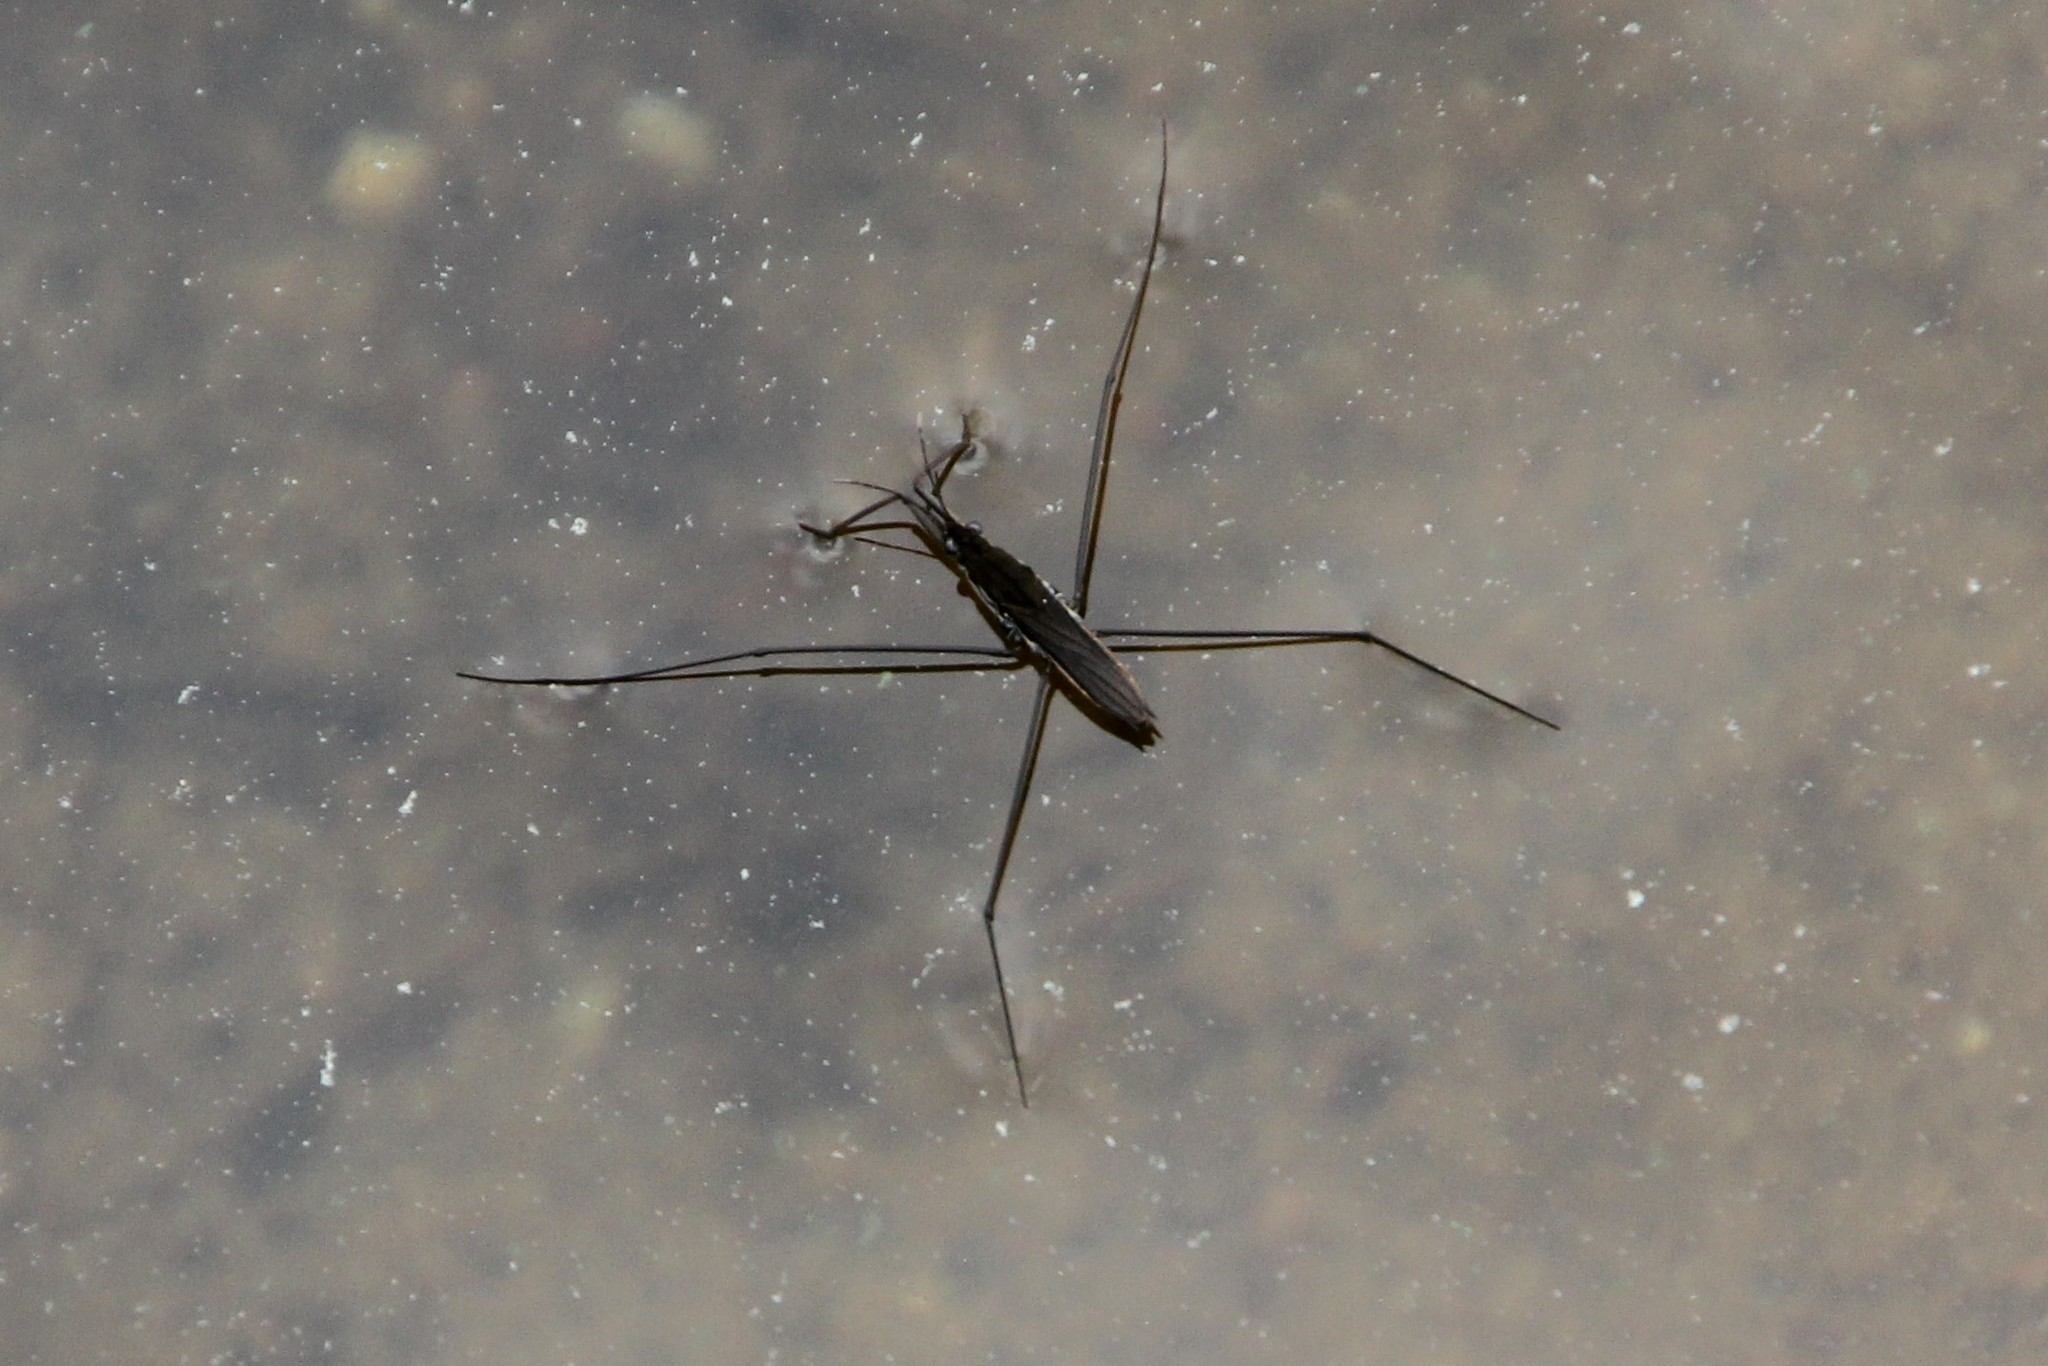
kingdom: Animalia
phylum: Arthropoda
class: Insecta
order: Hemiptera
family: Gerridae
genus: Aquarius
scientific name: Aquarius paludum
